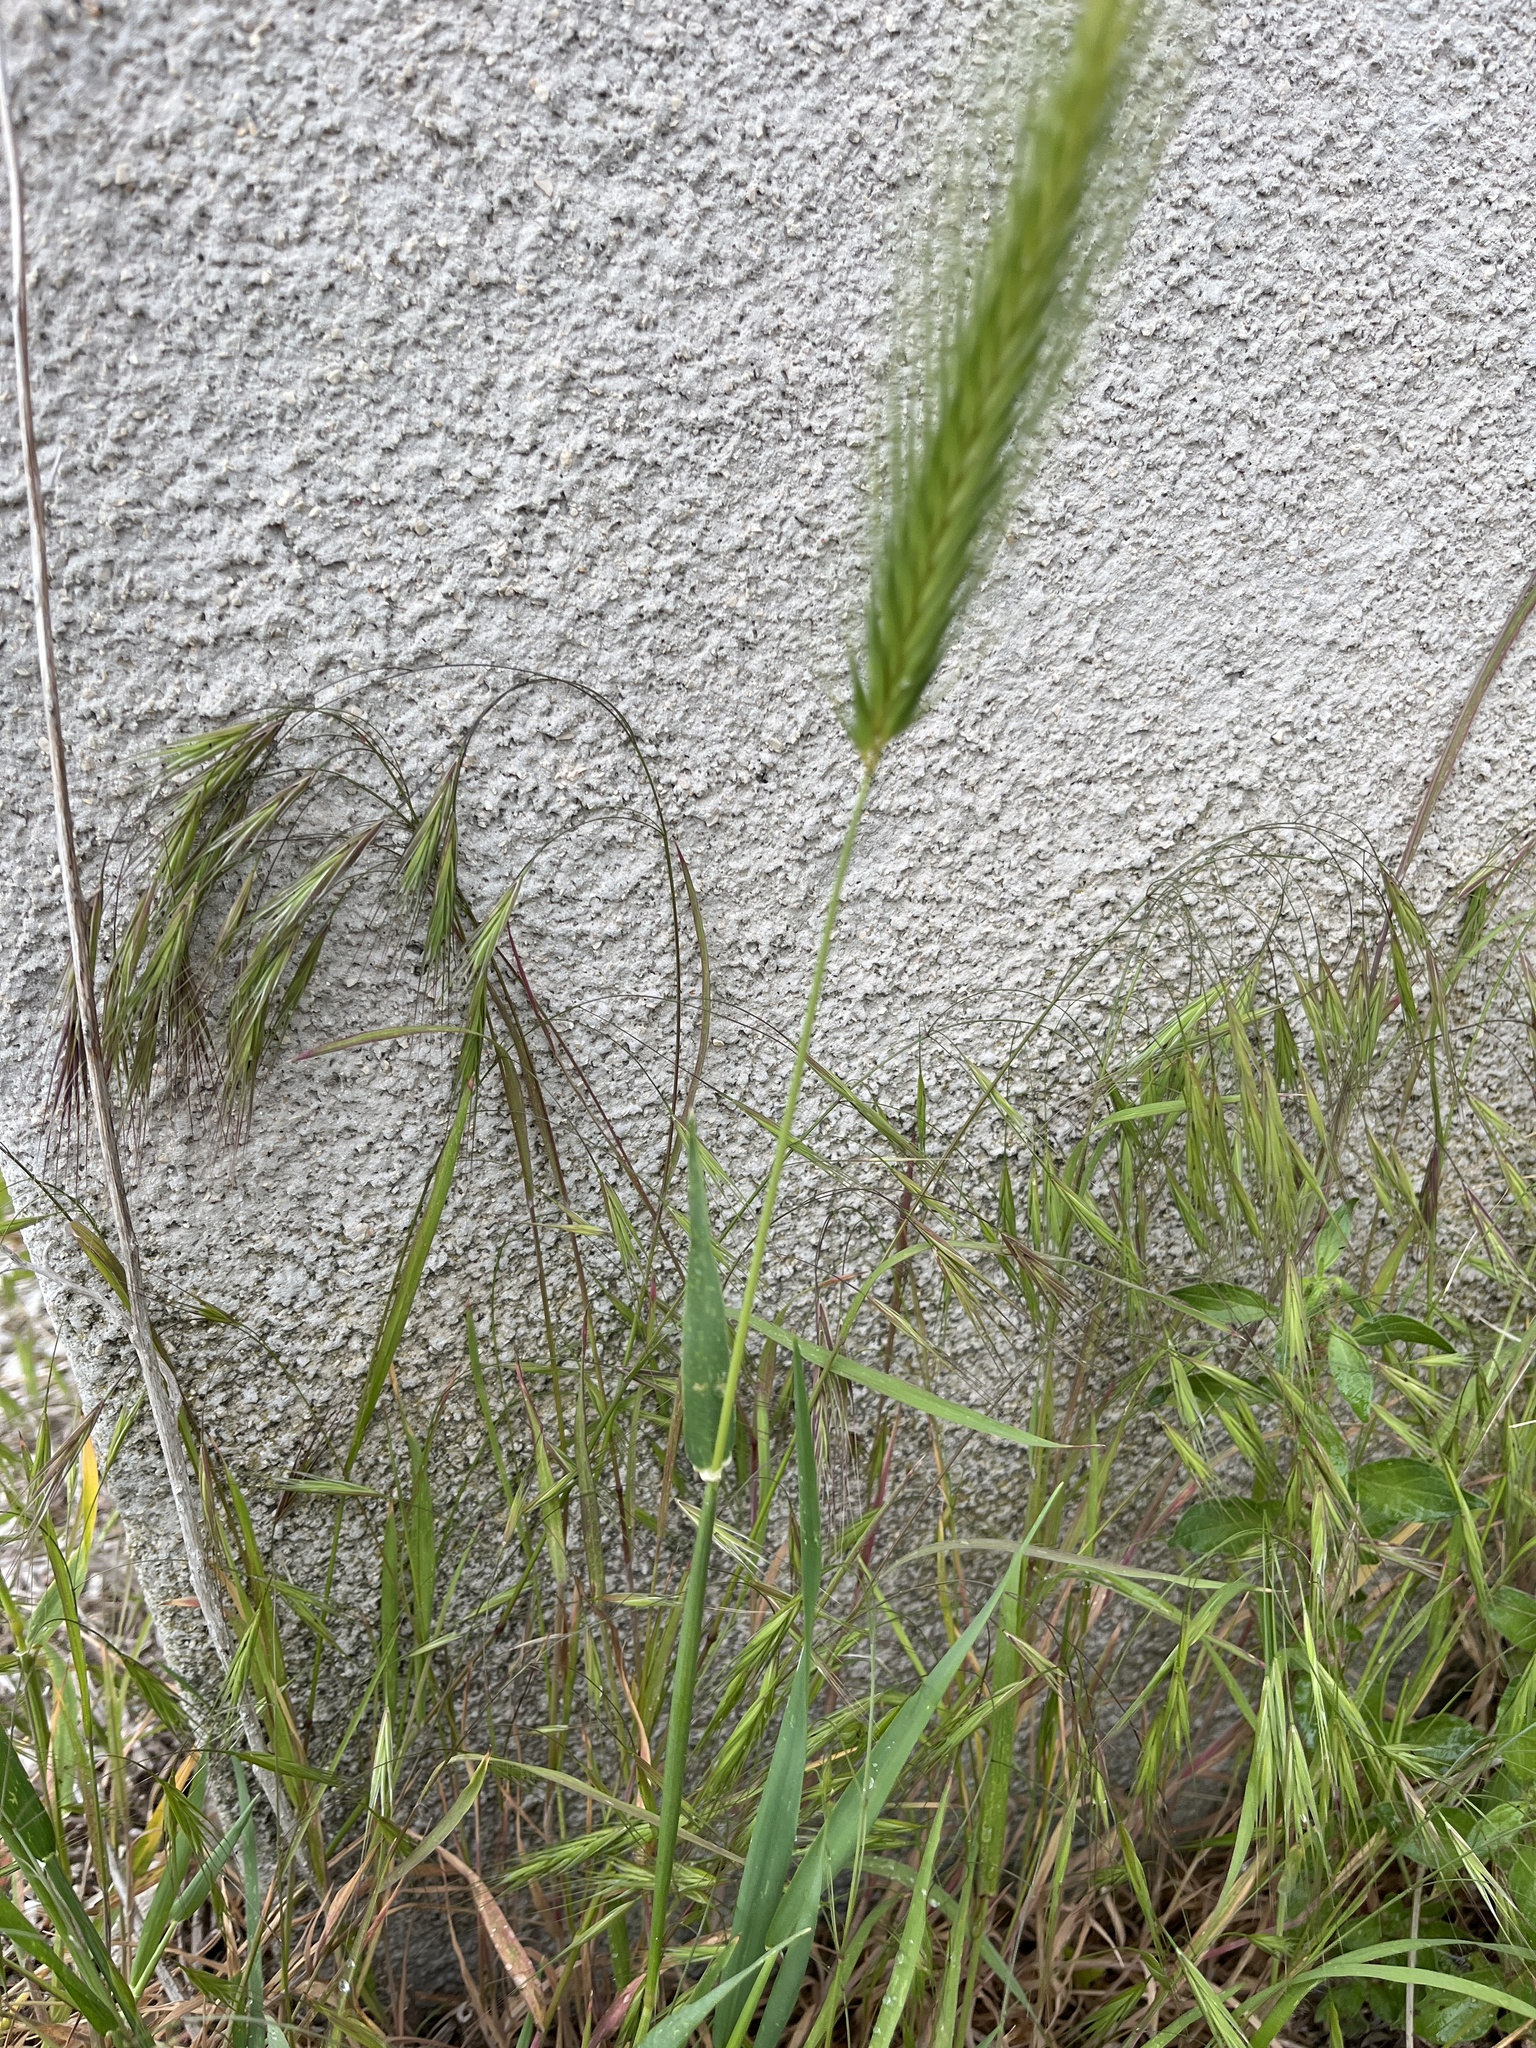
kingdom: Plantae
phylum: Tracheophyta
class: Liliopsida
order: Poales
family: Poaceae
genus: Hordeum
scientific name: Hordeum murinum
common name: Wall barley
